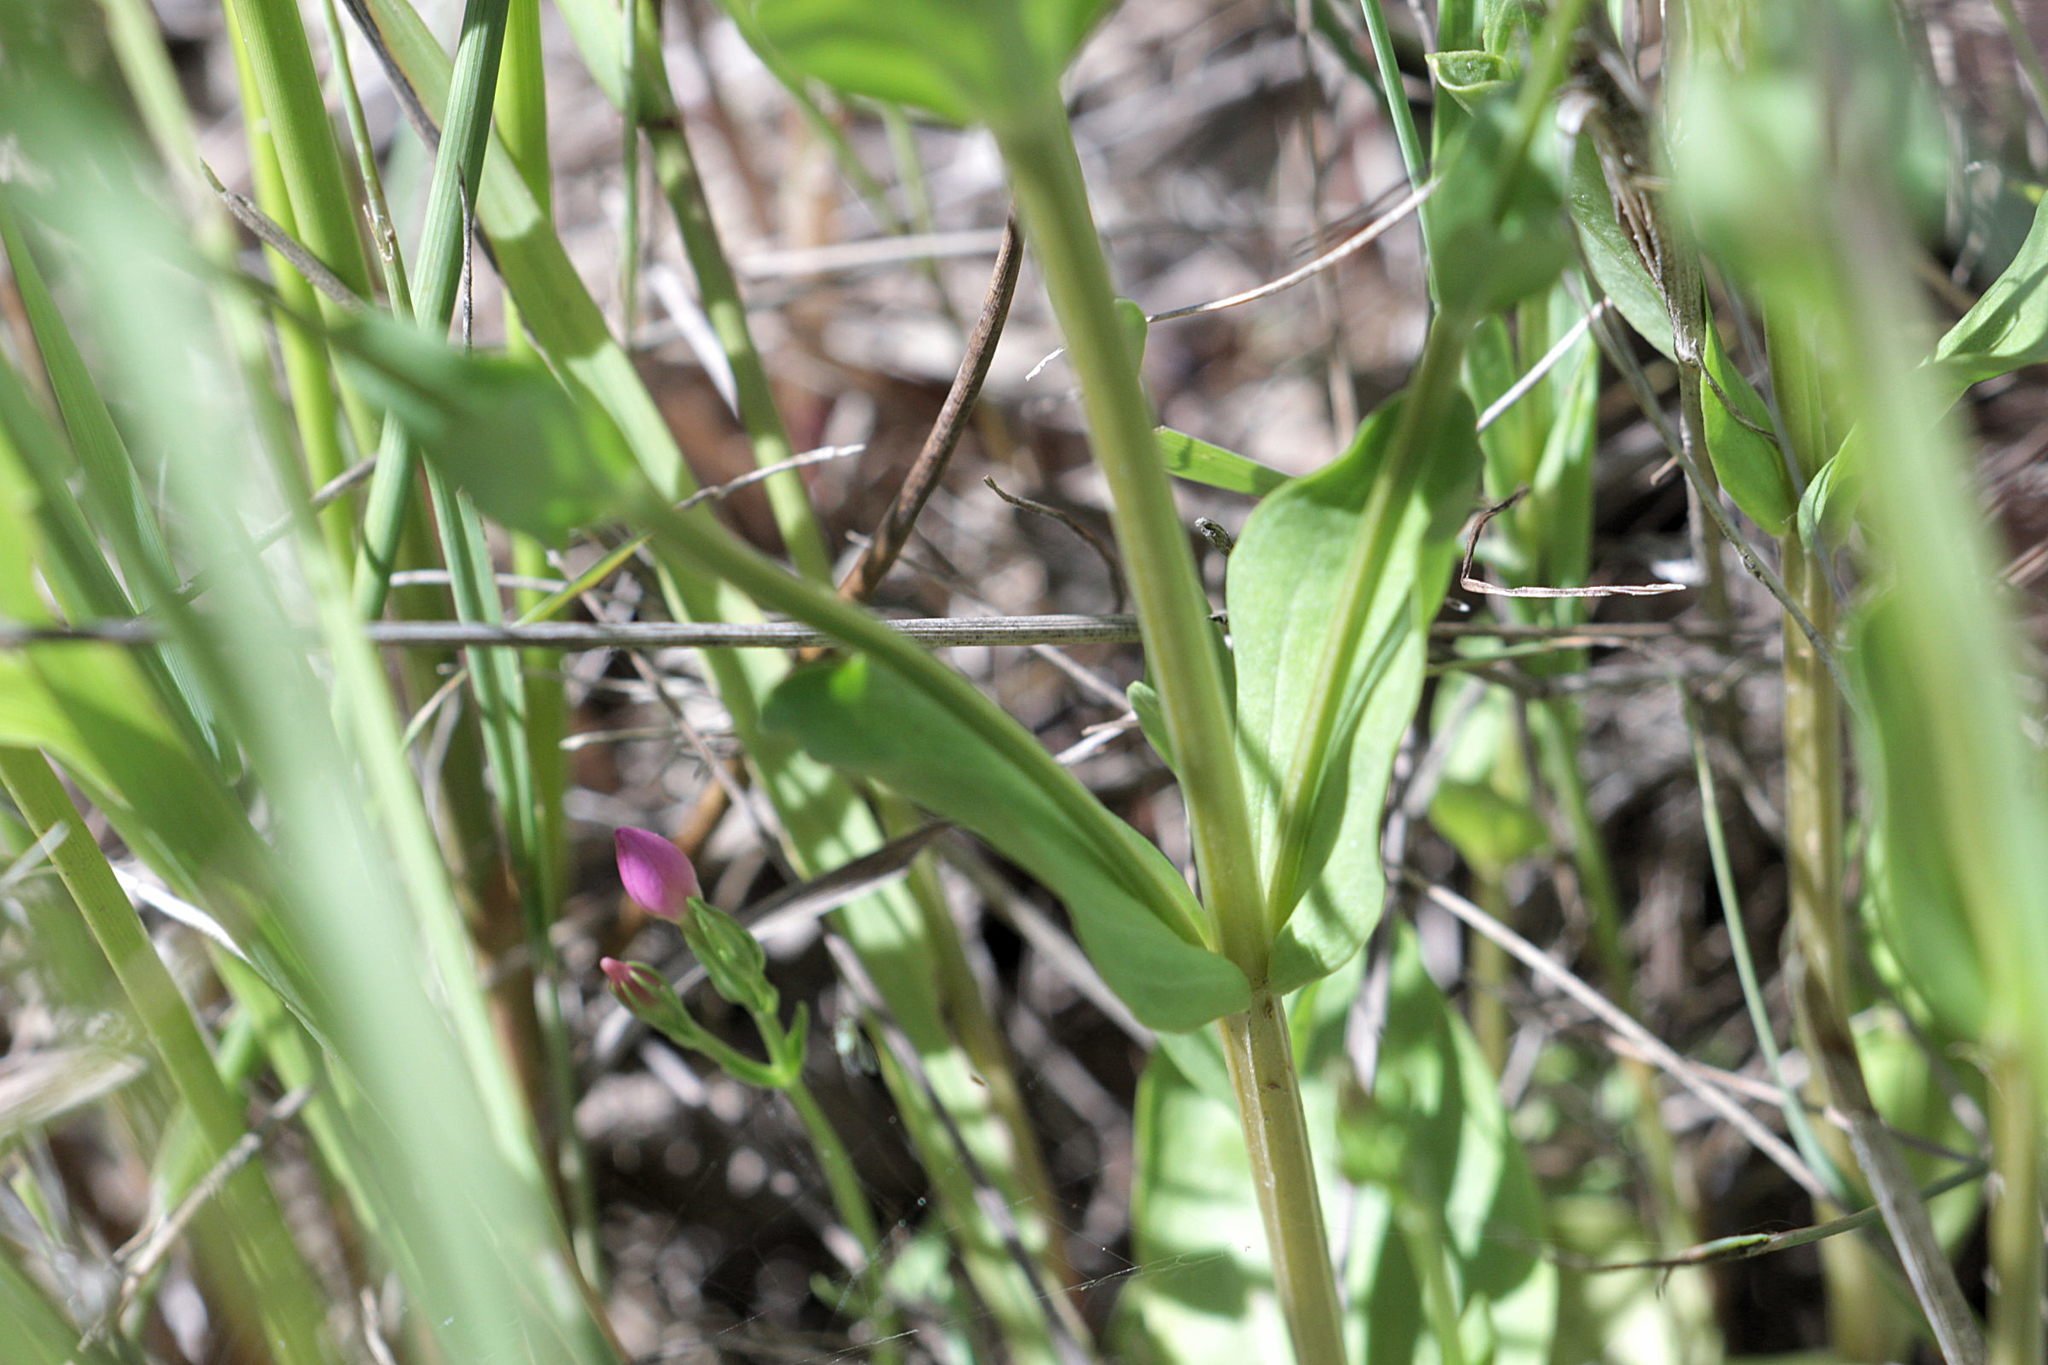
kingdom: Plantae
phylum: Tracheophyta
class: Magnoliopsida
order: Gentianales
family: Gentianaceae
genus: Centaurium
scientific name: Centaurium erythraea
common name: Common centaury
